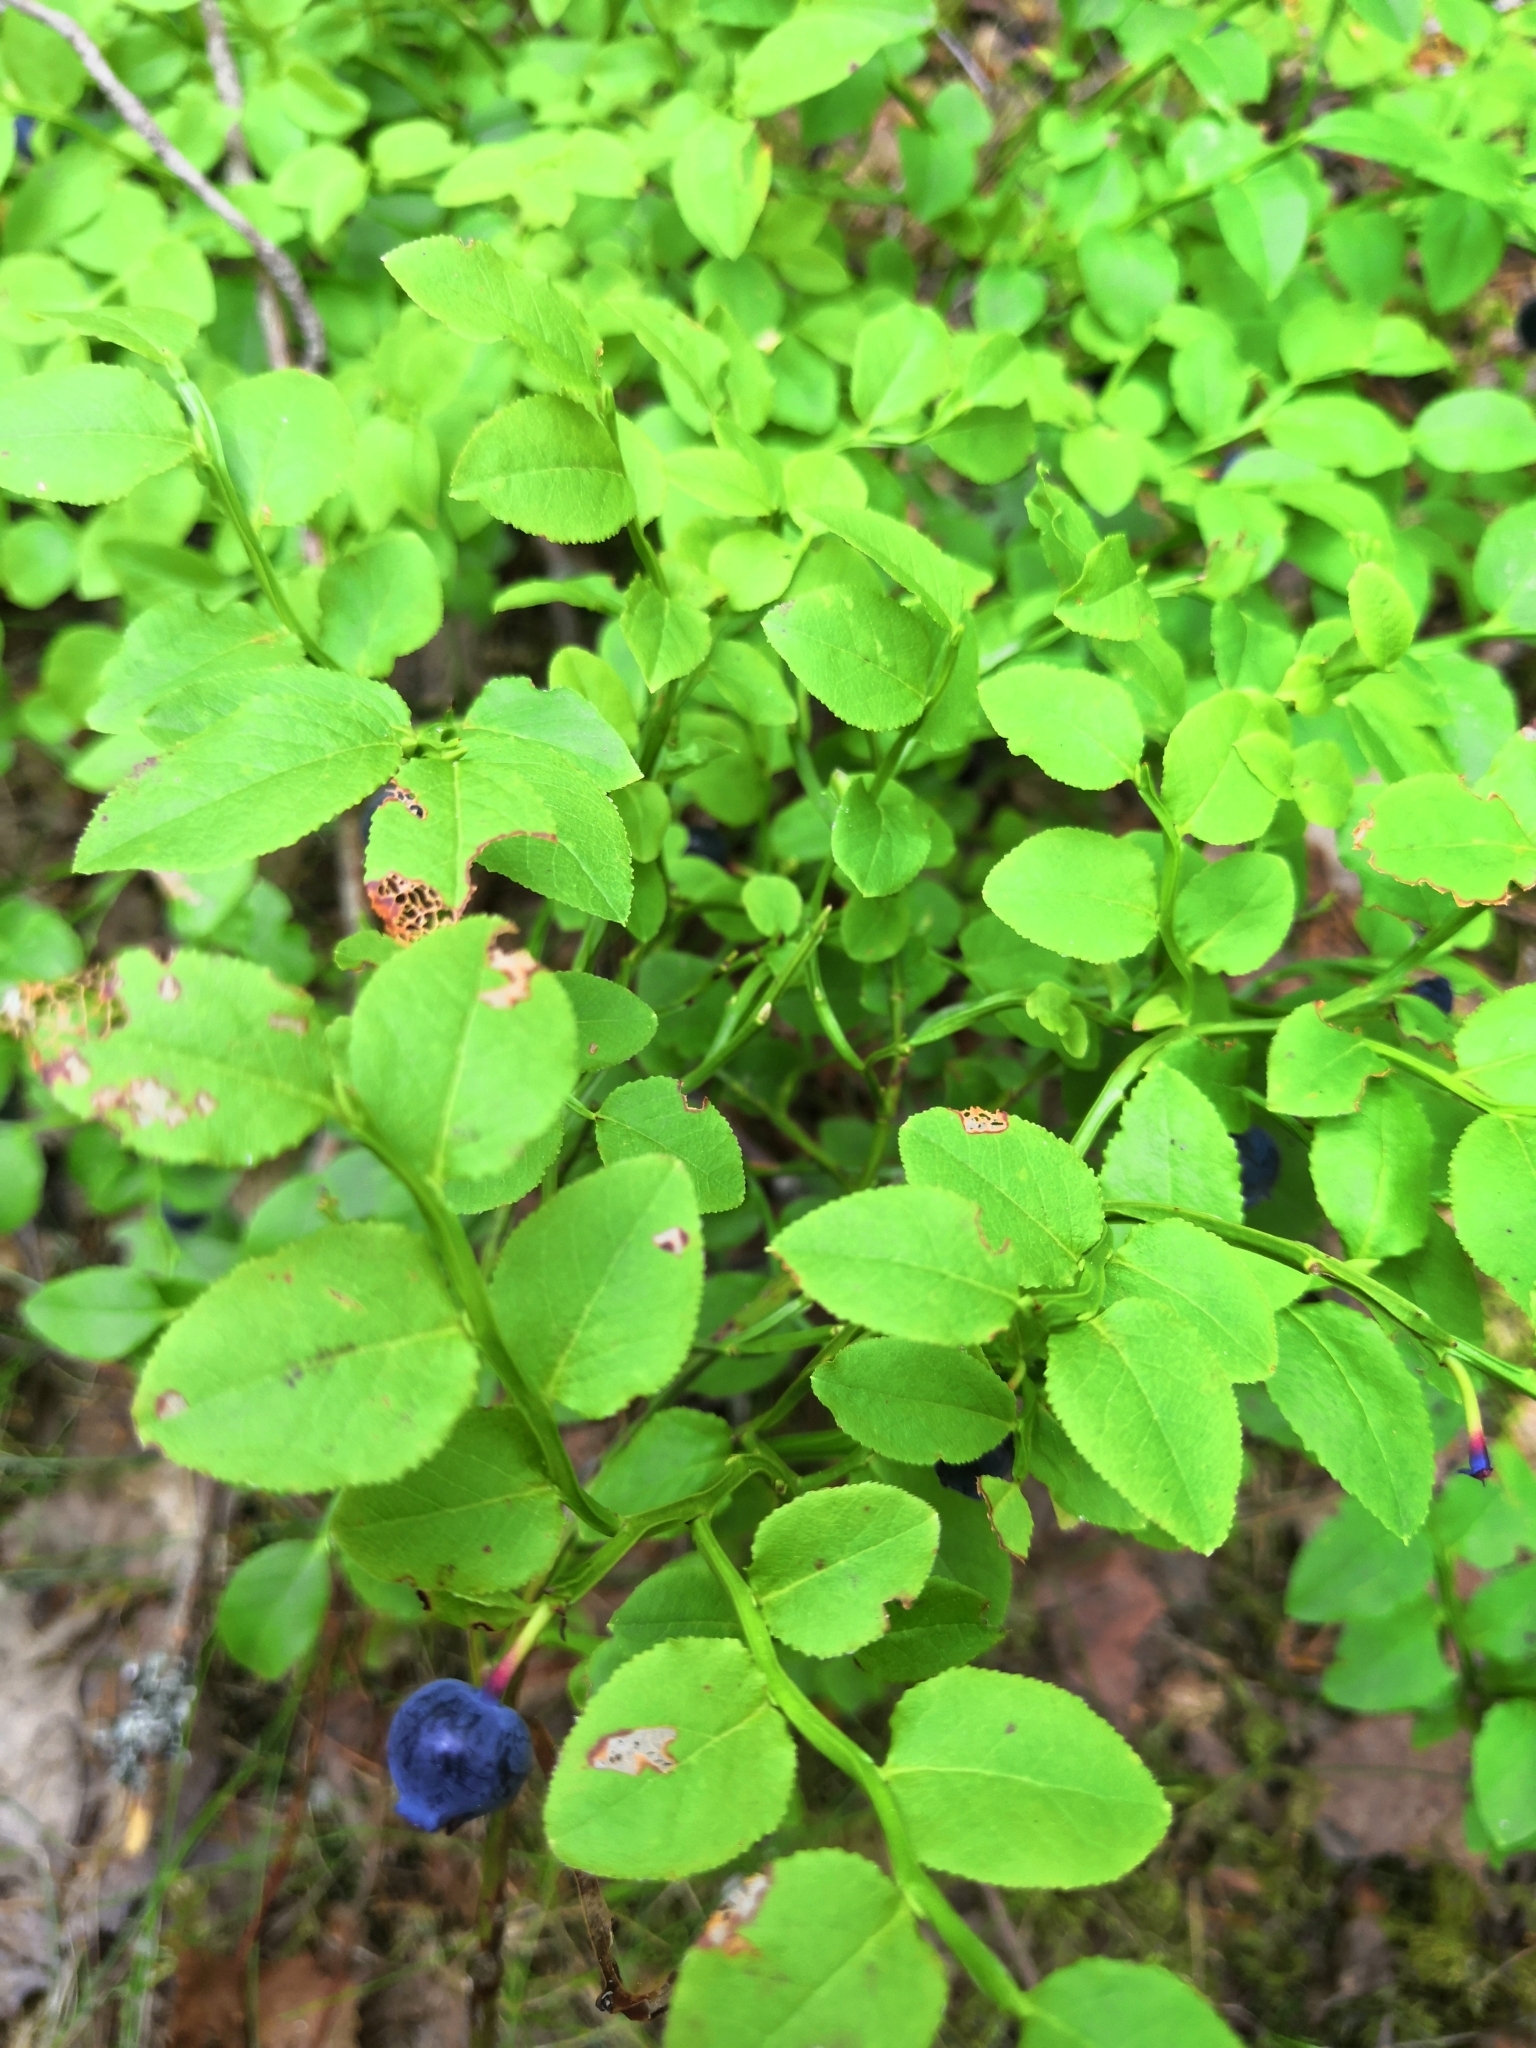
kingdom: Plantae
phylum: Tracheophyta
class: Magnoliopsida
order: Ericales
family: Ericaceae
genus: Vaccinium
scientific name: Vaccinium myrtillus
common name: Bilberry
